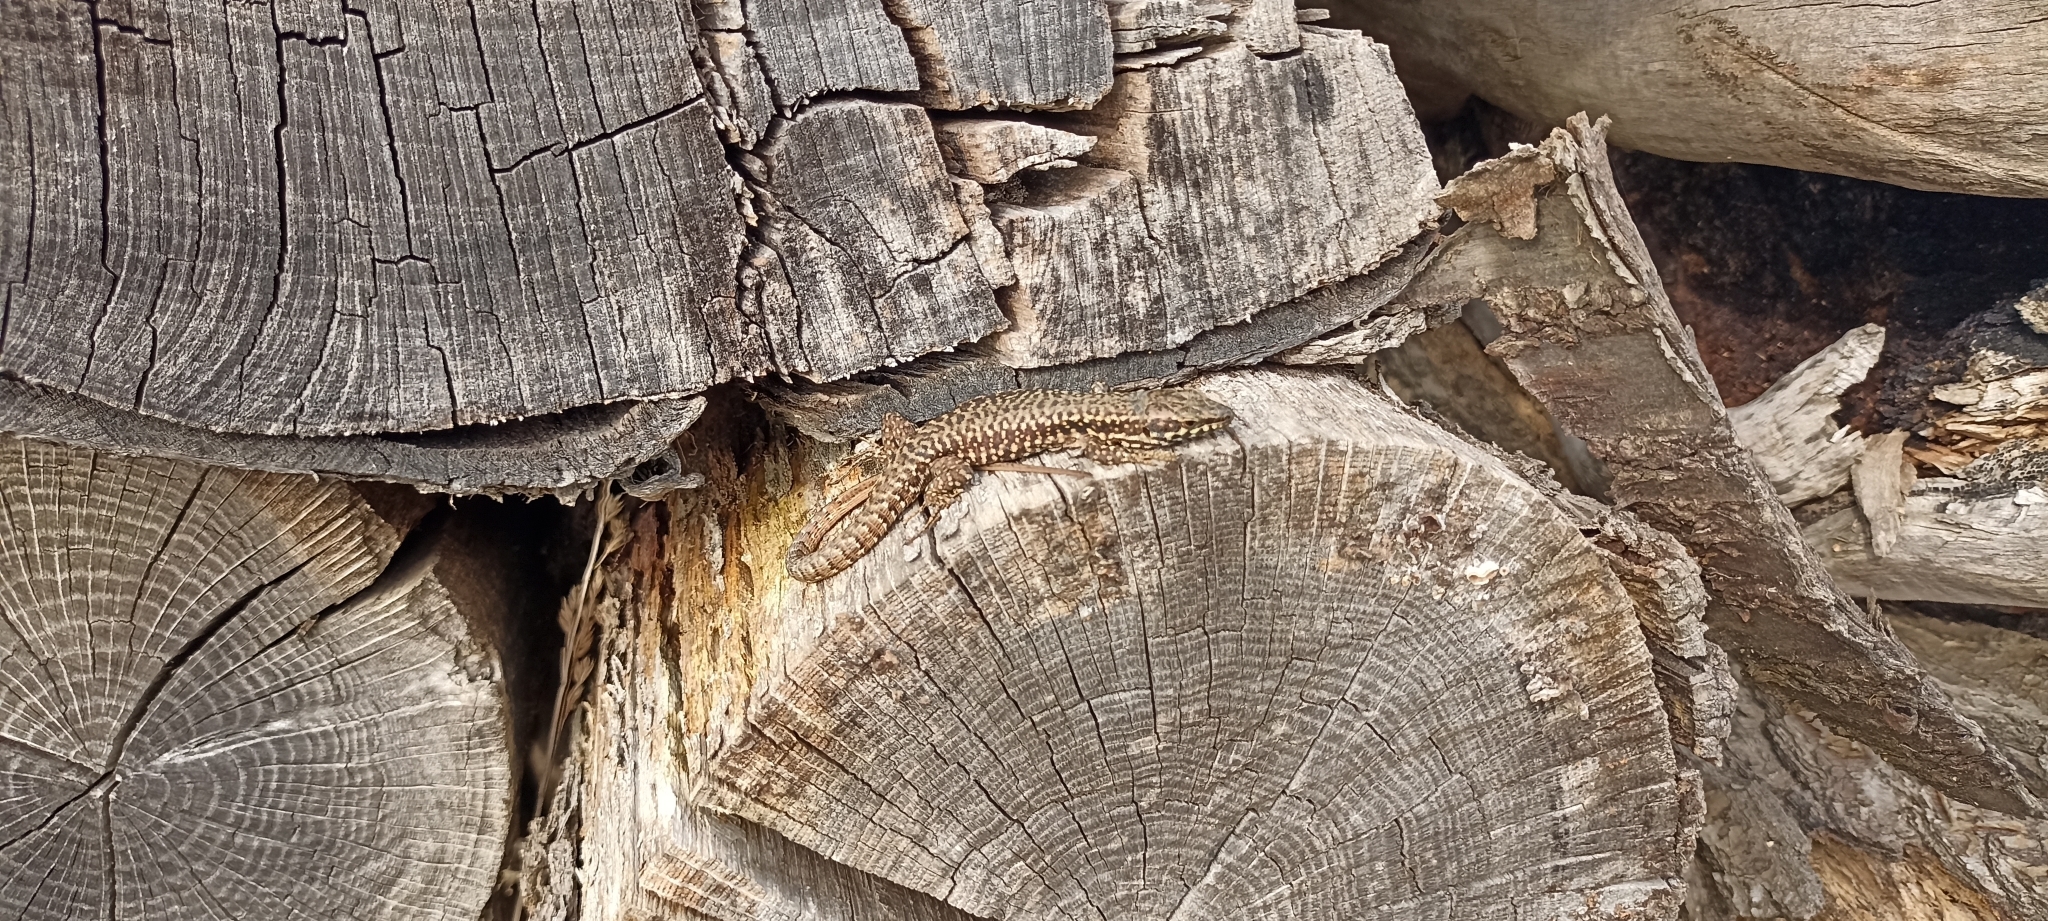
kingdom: Animalia
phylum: Chordata
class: Squamata
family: Lacertidae
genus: Podarcis
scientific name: Podarcis muralis
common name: Common wall lizard
